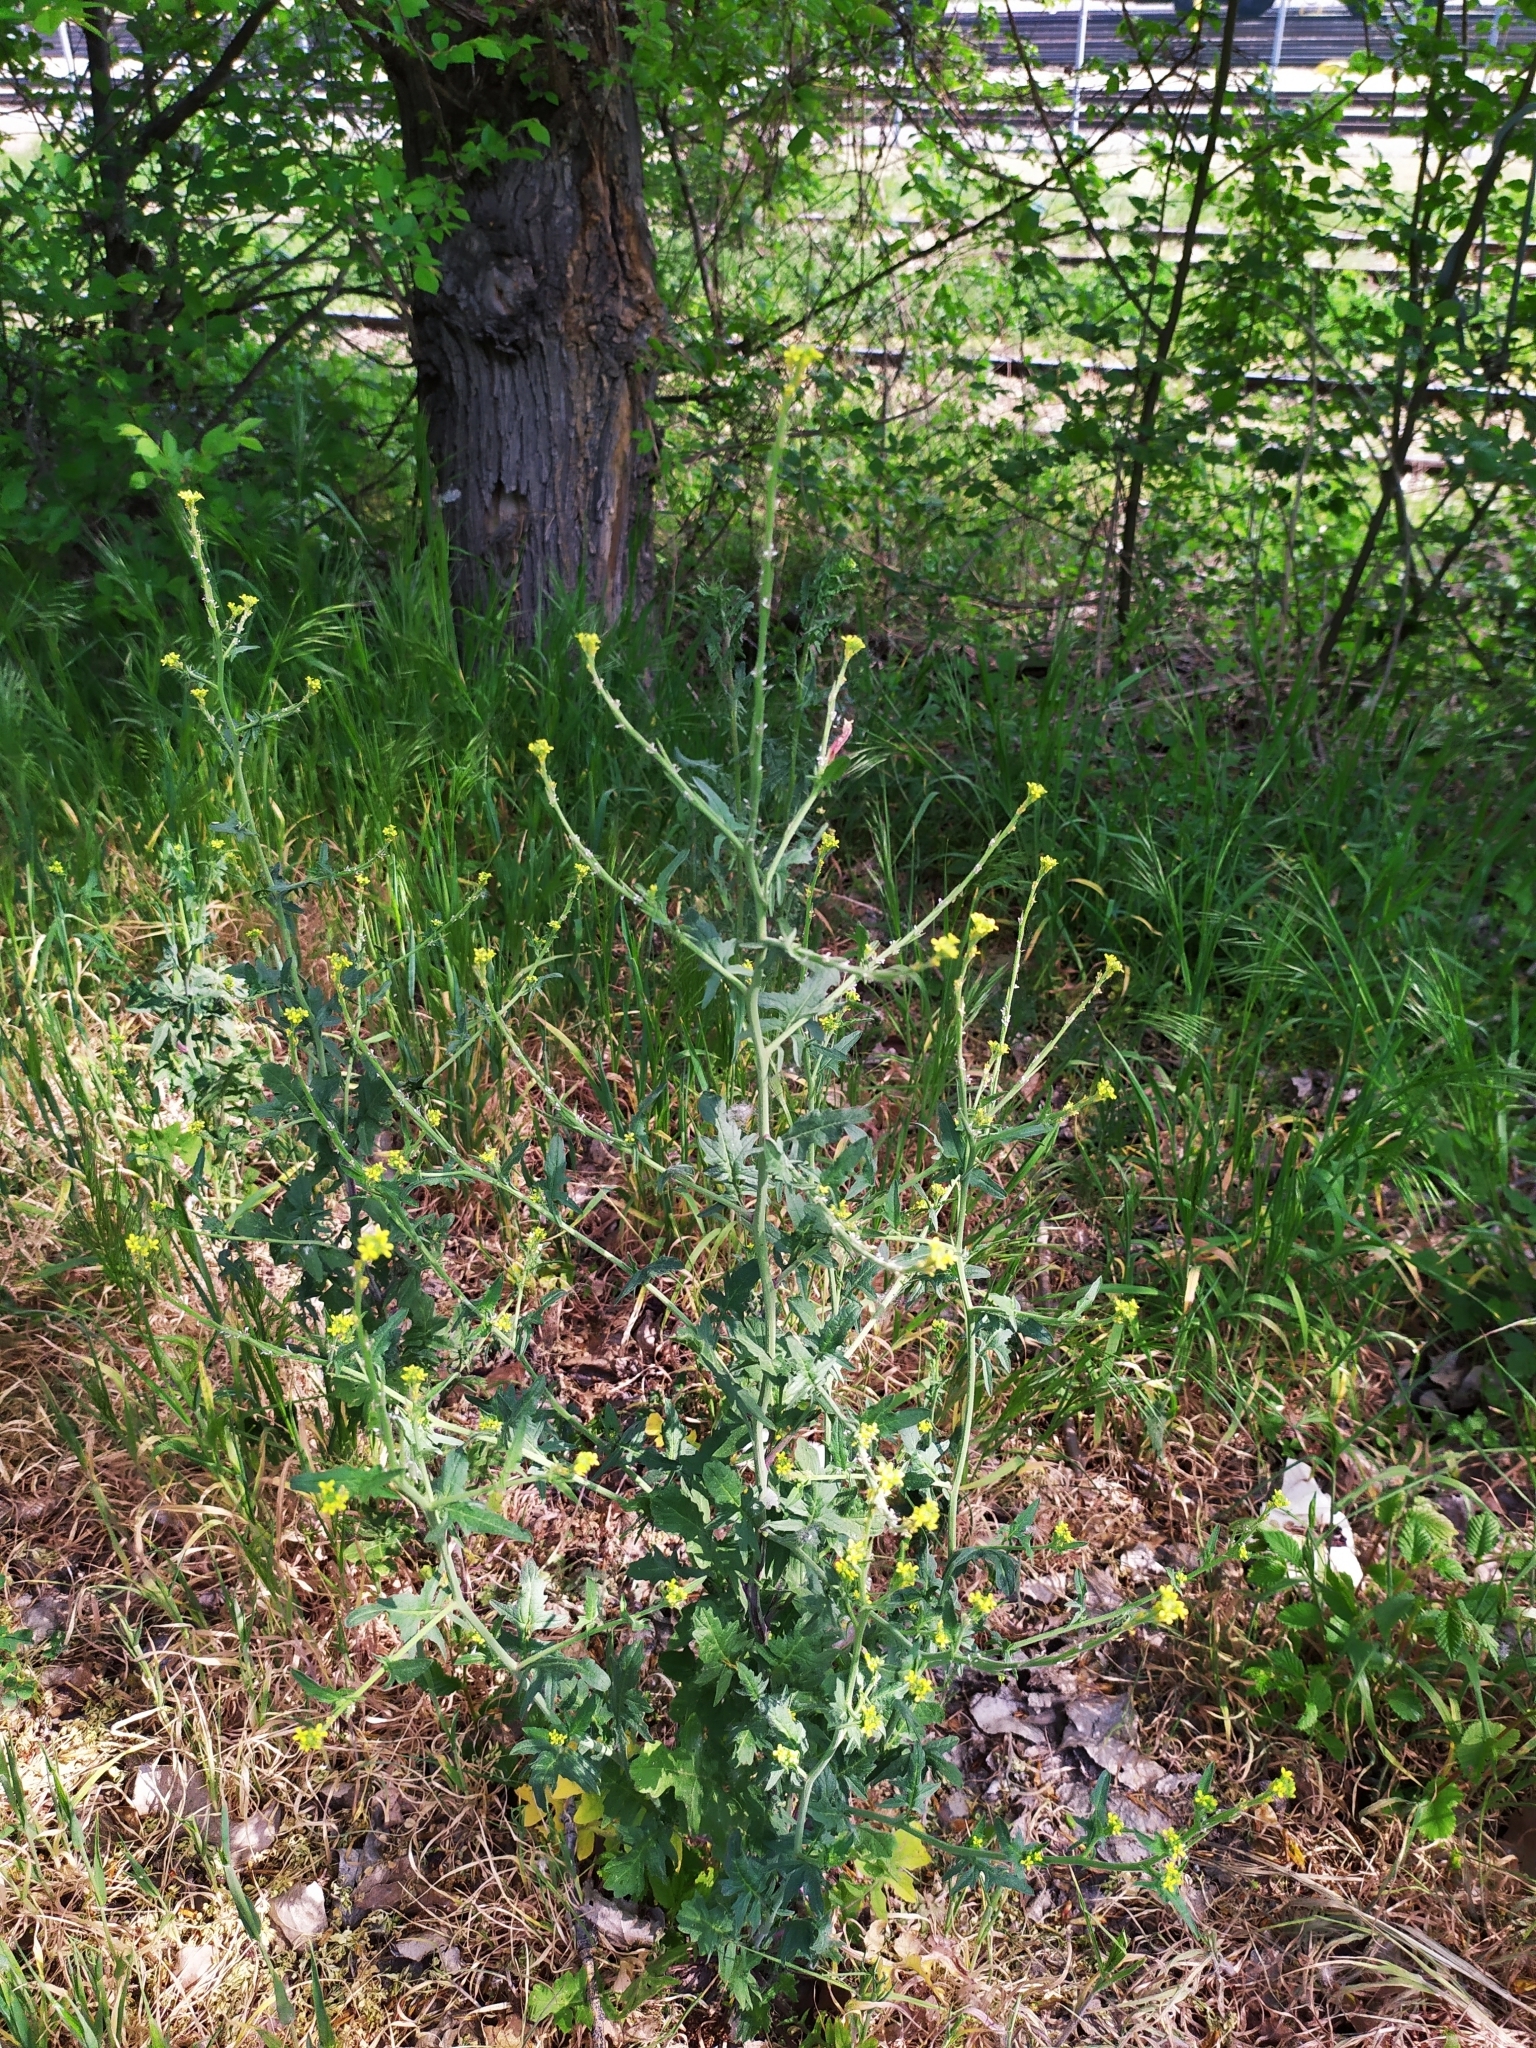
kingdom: Plantae
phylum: Tracheophyta
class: Magnoliopsida
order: Brassicales
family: Brassicaceae
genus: Sisymbrium
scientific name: Sisymbrium officinale
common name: Hedge mustard
